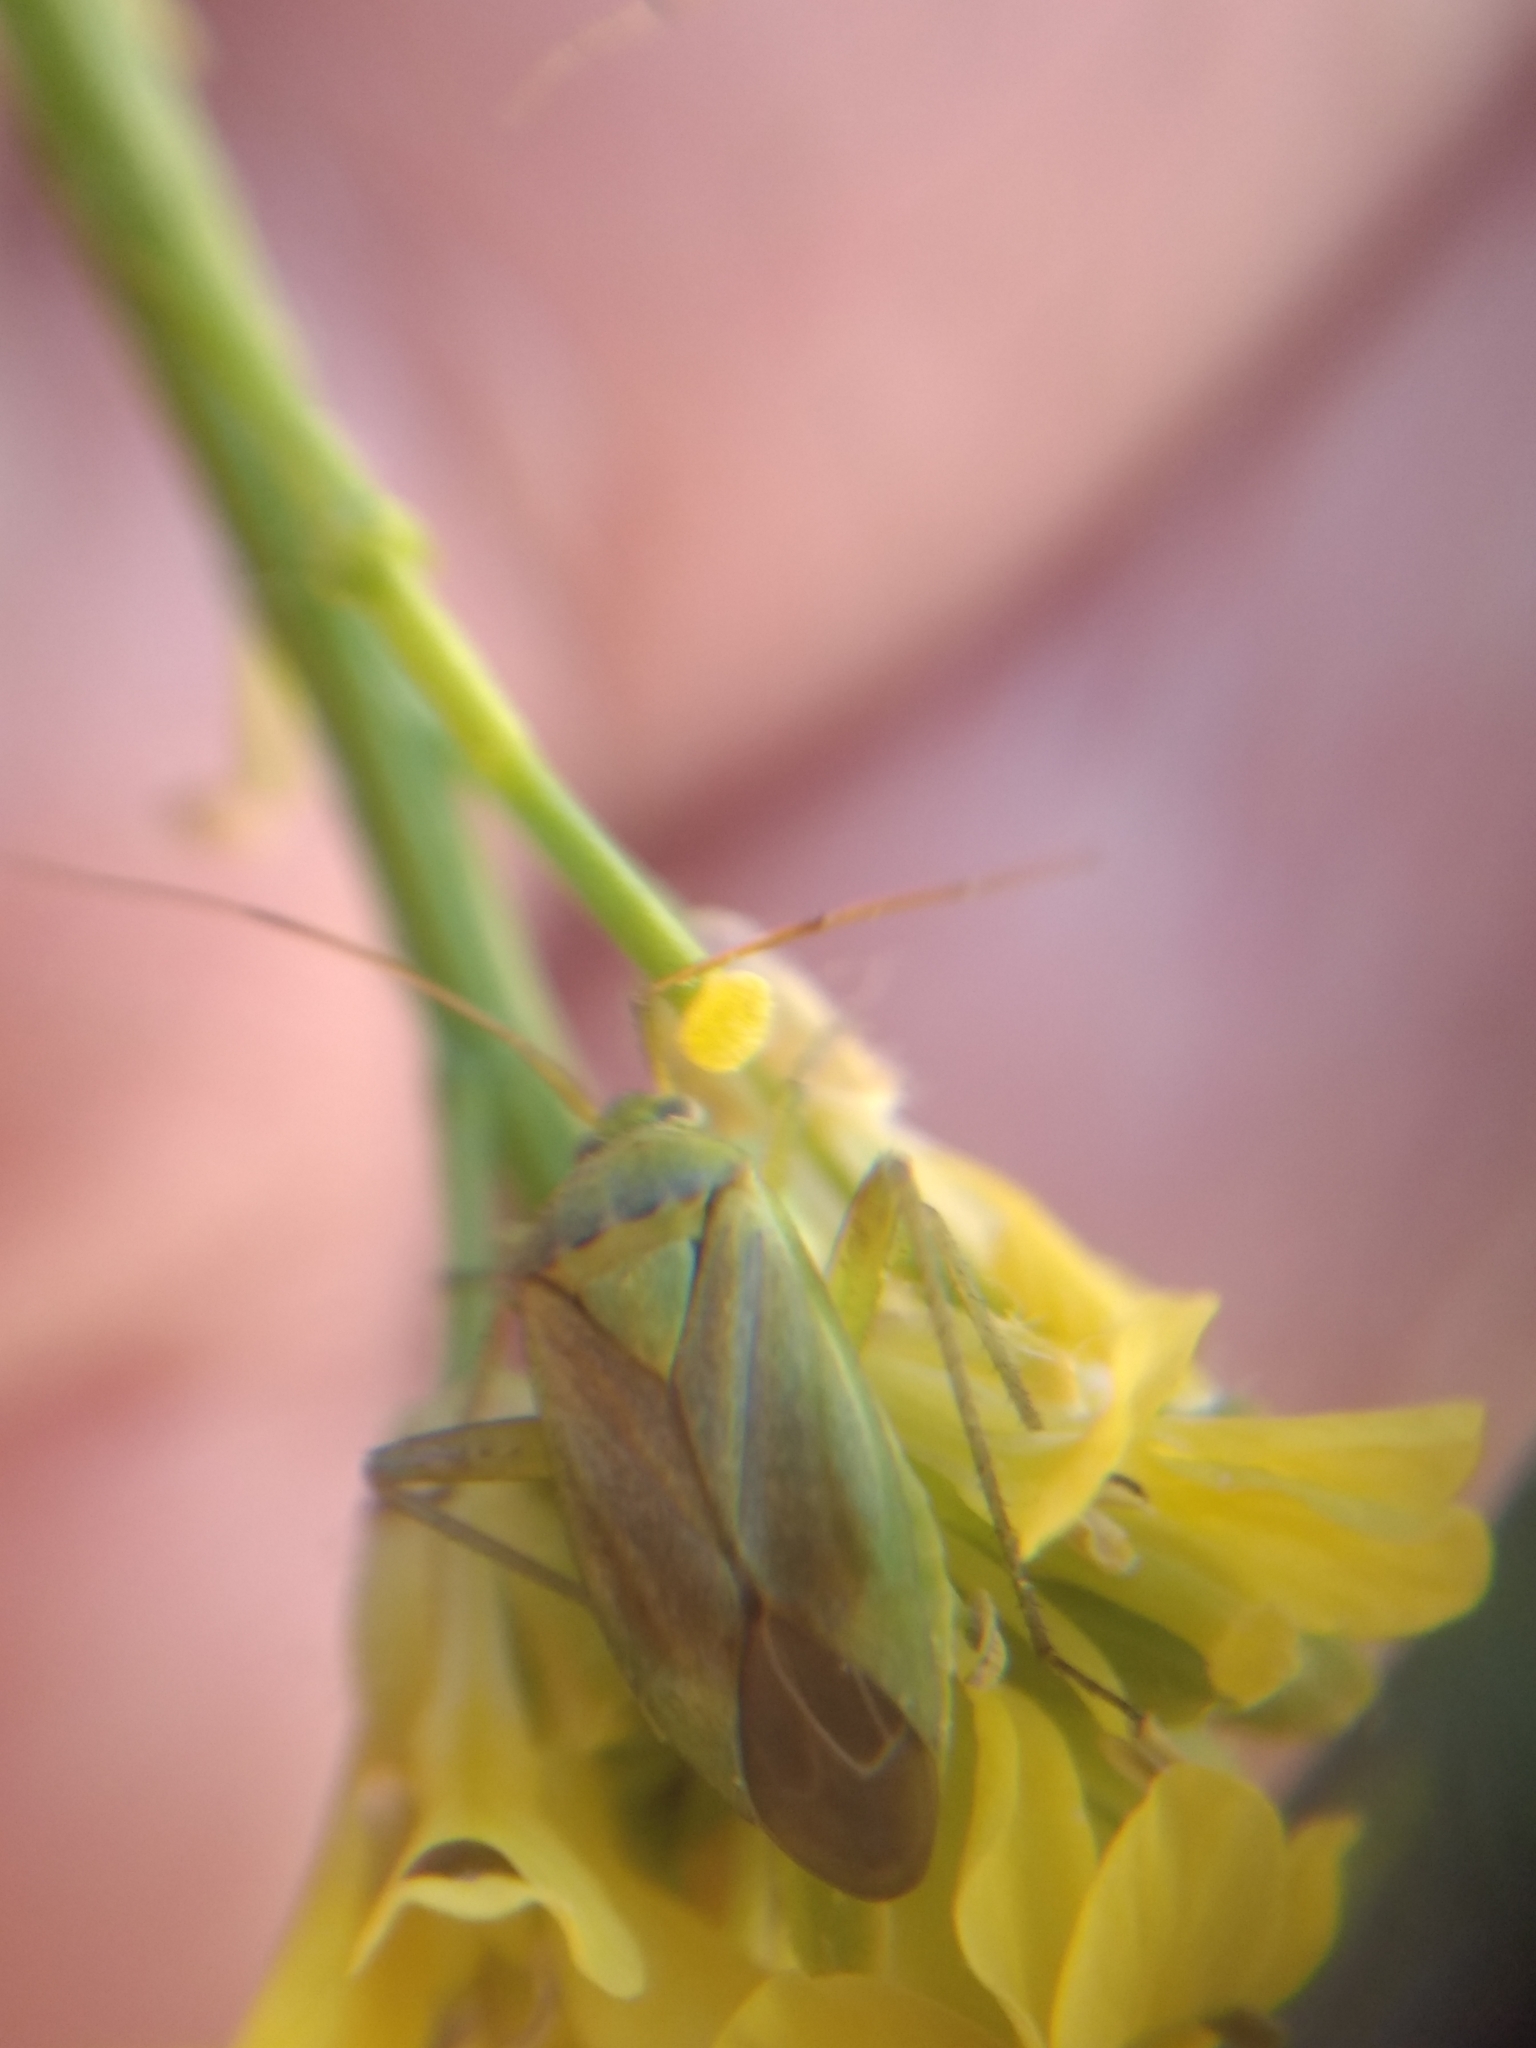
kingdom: Animalia
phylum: Arthropoda
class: Insecta
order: Hemiptera
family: Miridae
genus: Closterotomus
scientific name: Closterotomus norvegicus
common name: Plant bug
